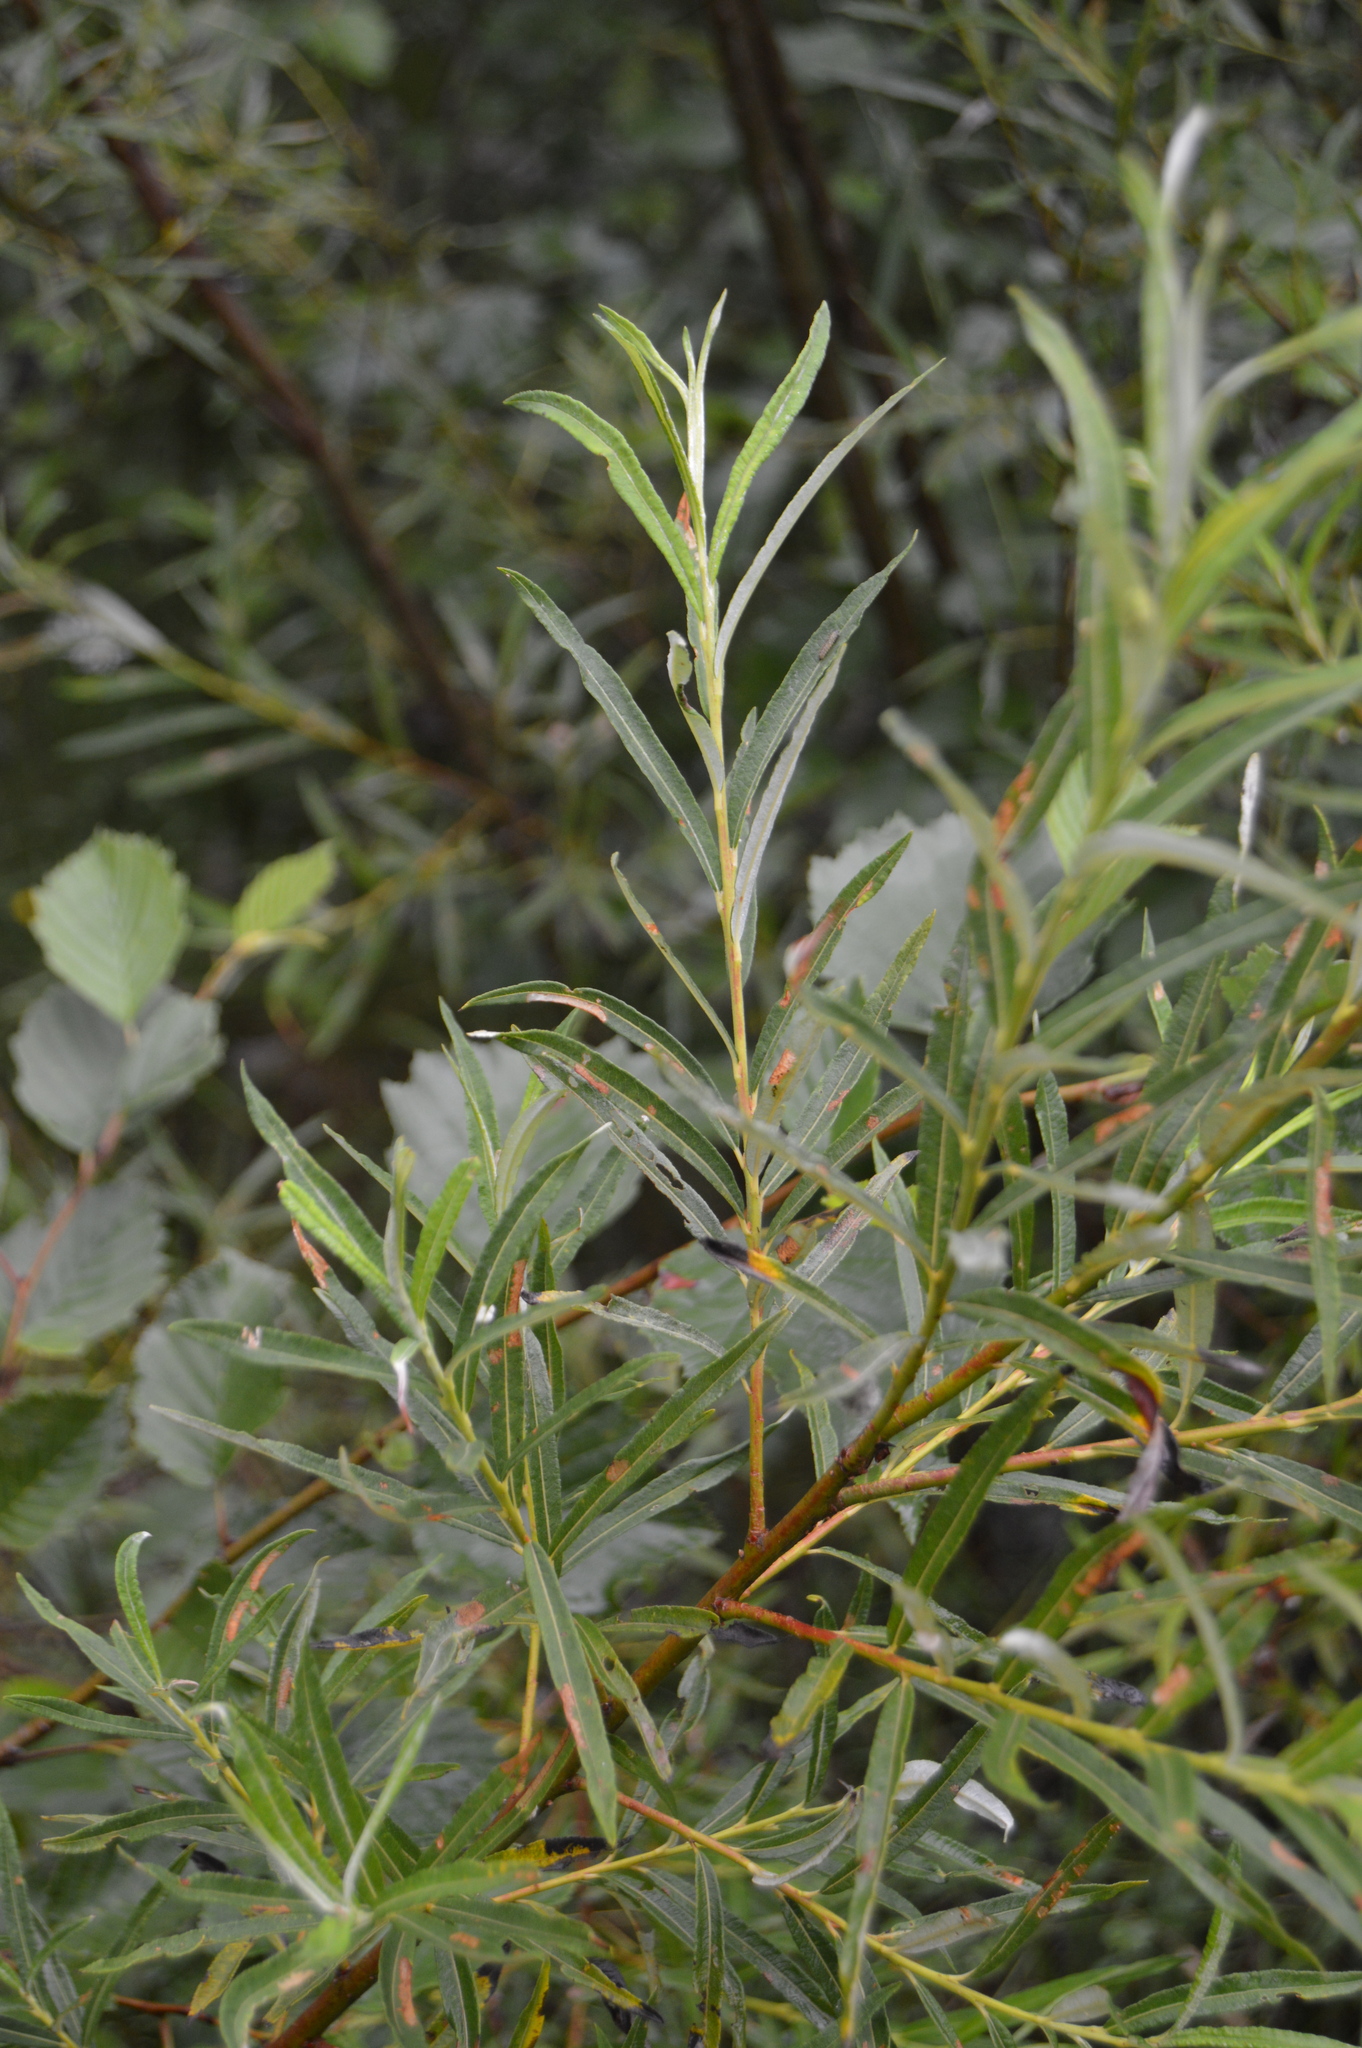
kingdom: Plantae
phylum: Tracheophyta
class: Magnoliopsida
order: Malpighiales
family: Salicaceae
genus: Salix
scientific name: Salix viminalis
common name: Osier
